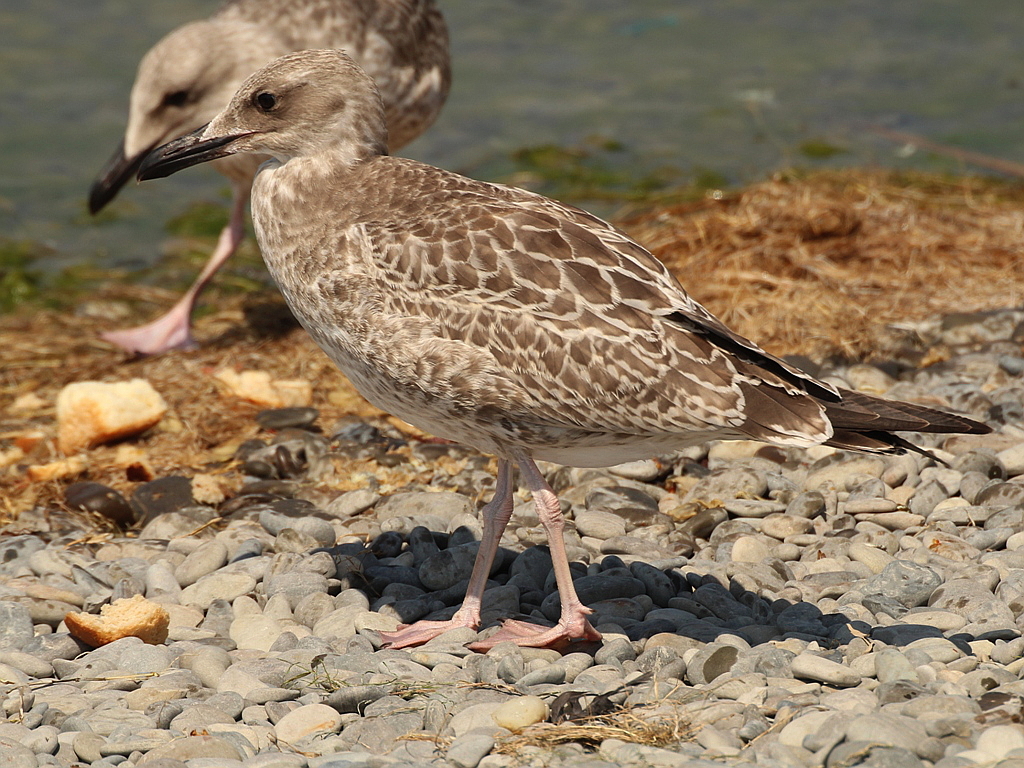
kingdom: Animalia
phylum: Chordata
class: Aves
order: Charadriiformes
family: Laridae
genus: Larus
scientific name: Larus michahellis
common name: Yellow-legged gull
